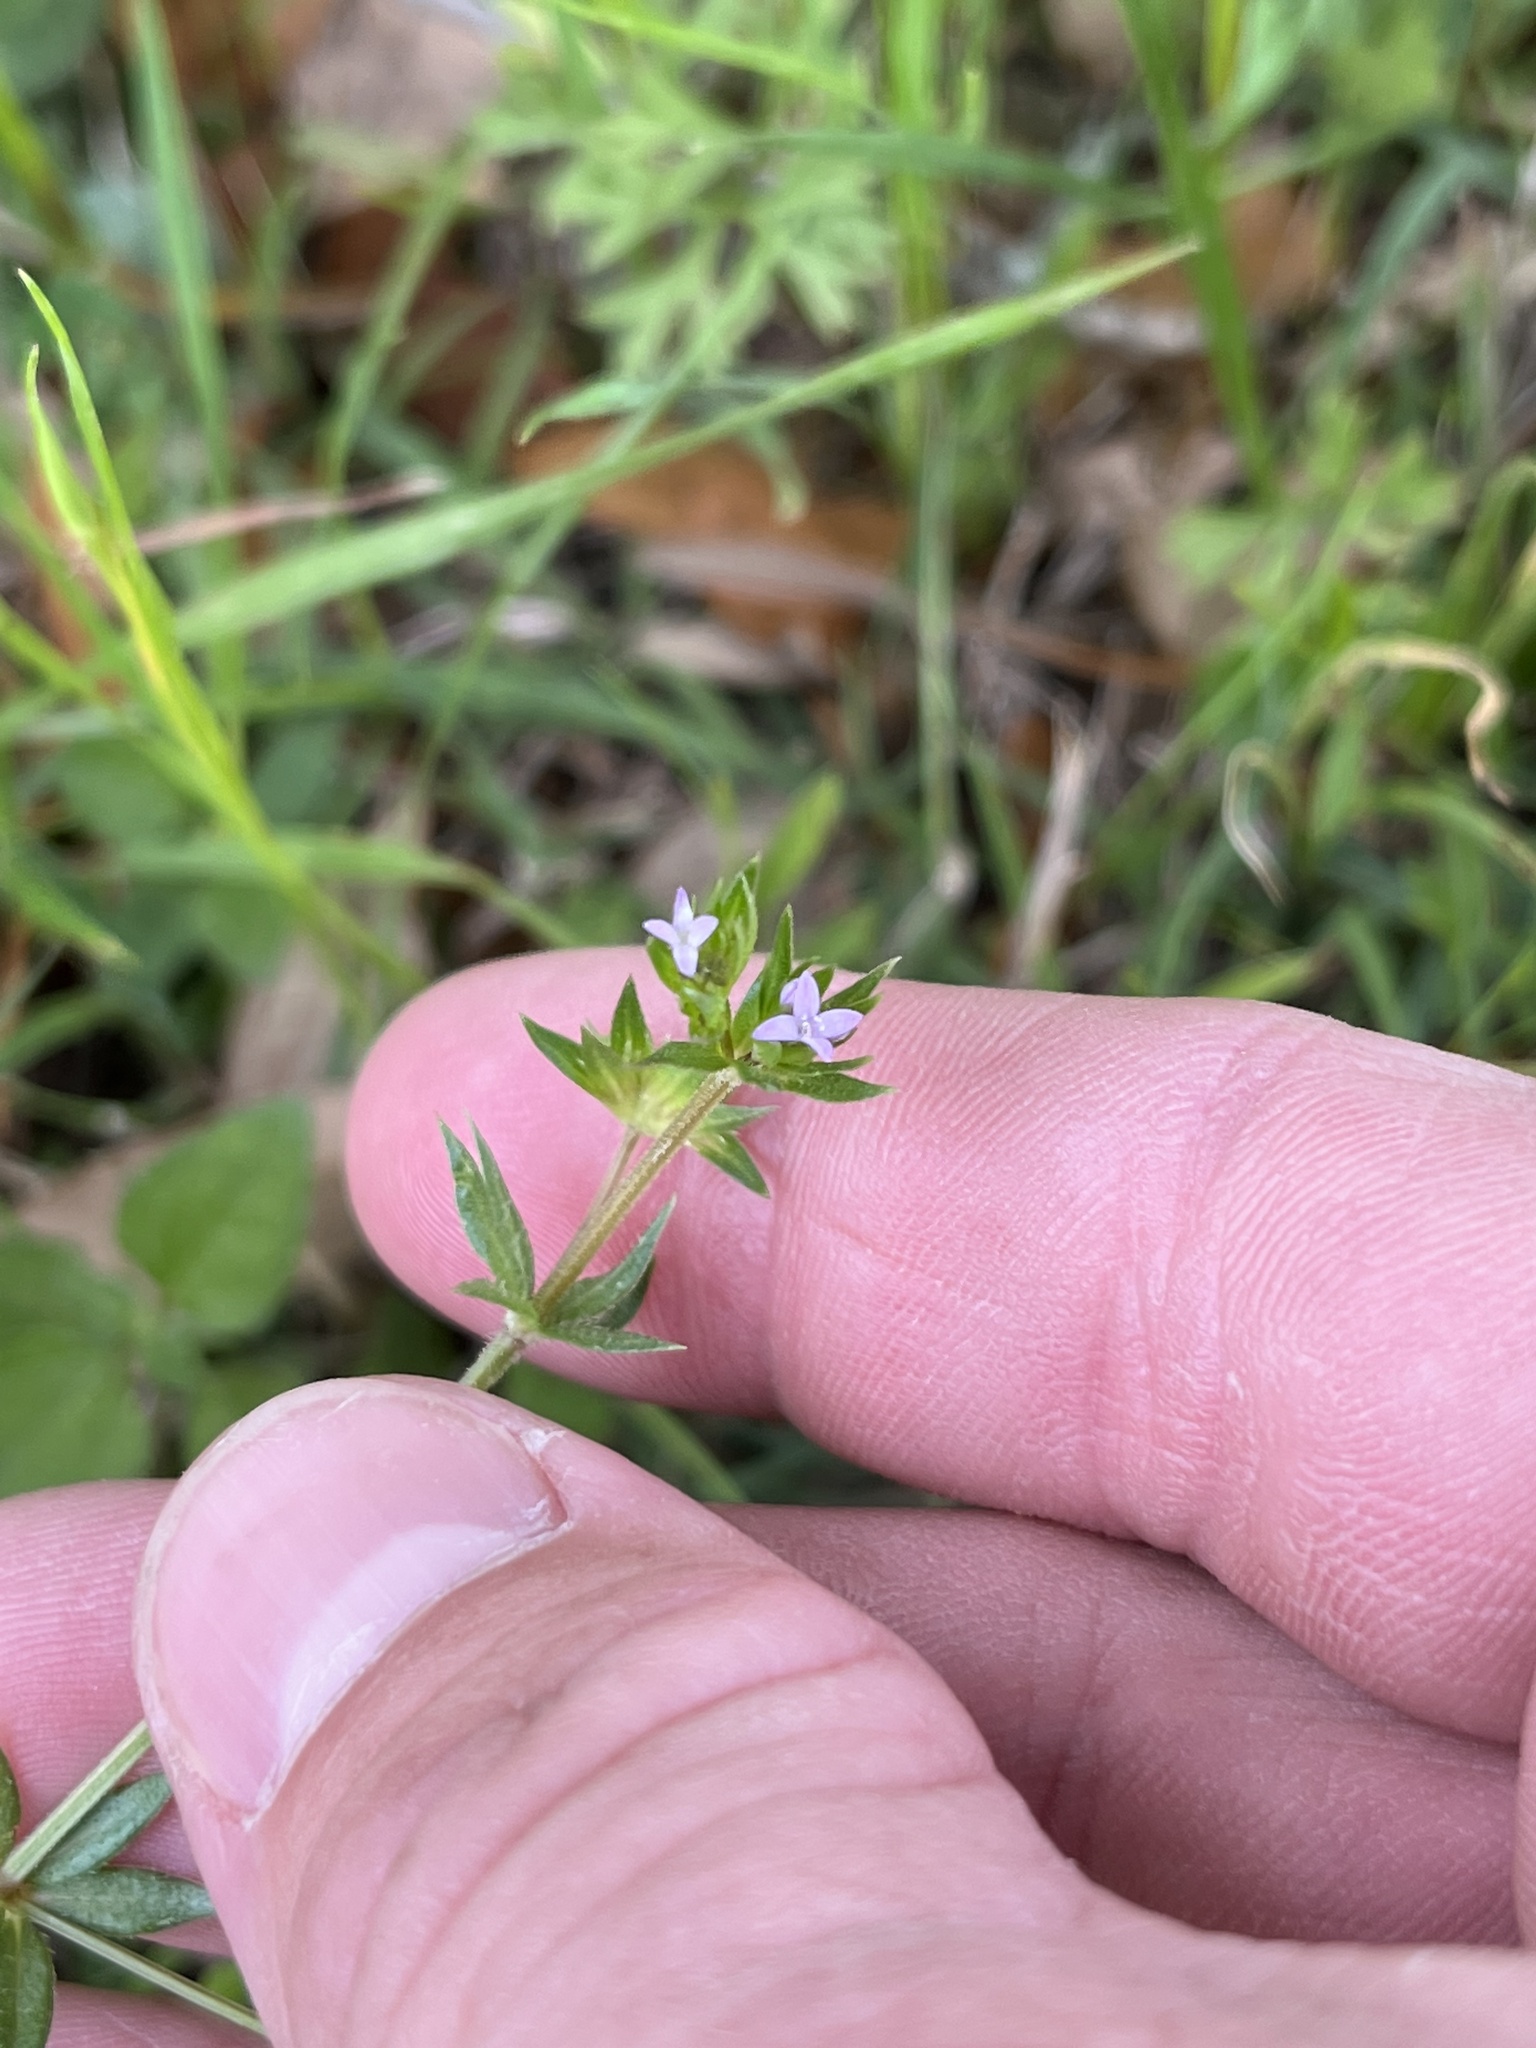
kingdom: Plantae
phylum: Tracheophyta
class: Magnoliopsida
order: Gentianales
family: Rubiaceae
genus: Sherardia
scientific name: Sherardia arvensis
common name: Field madder
